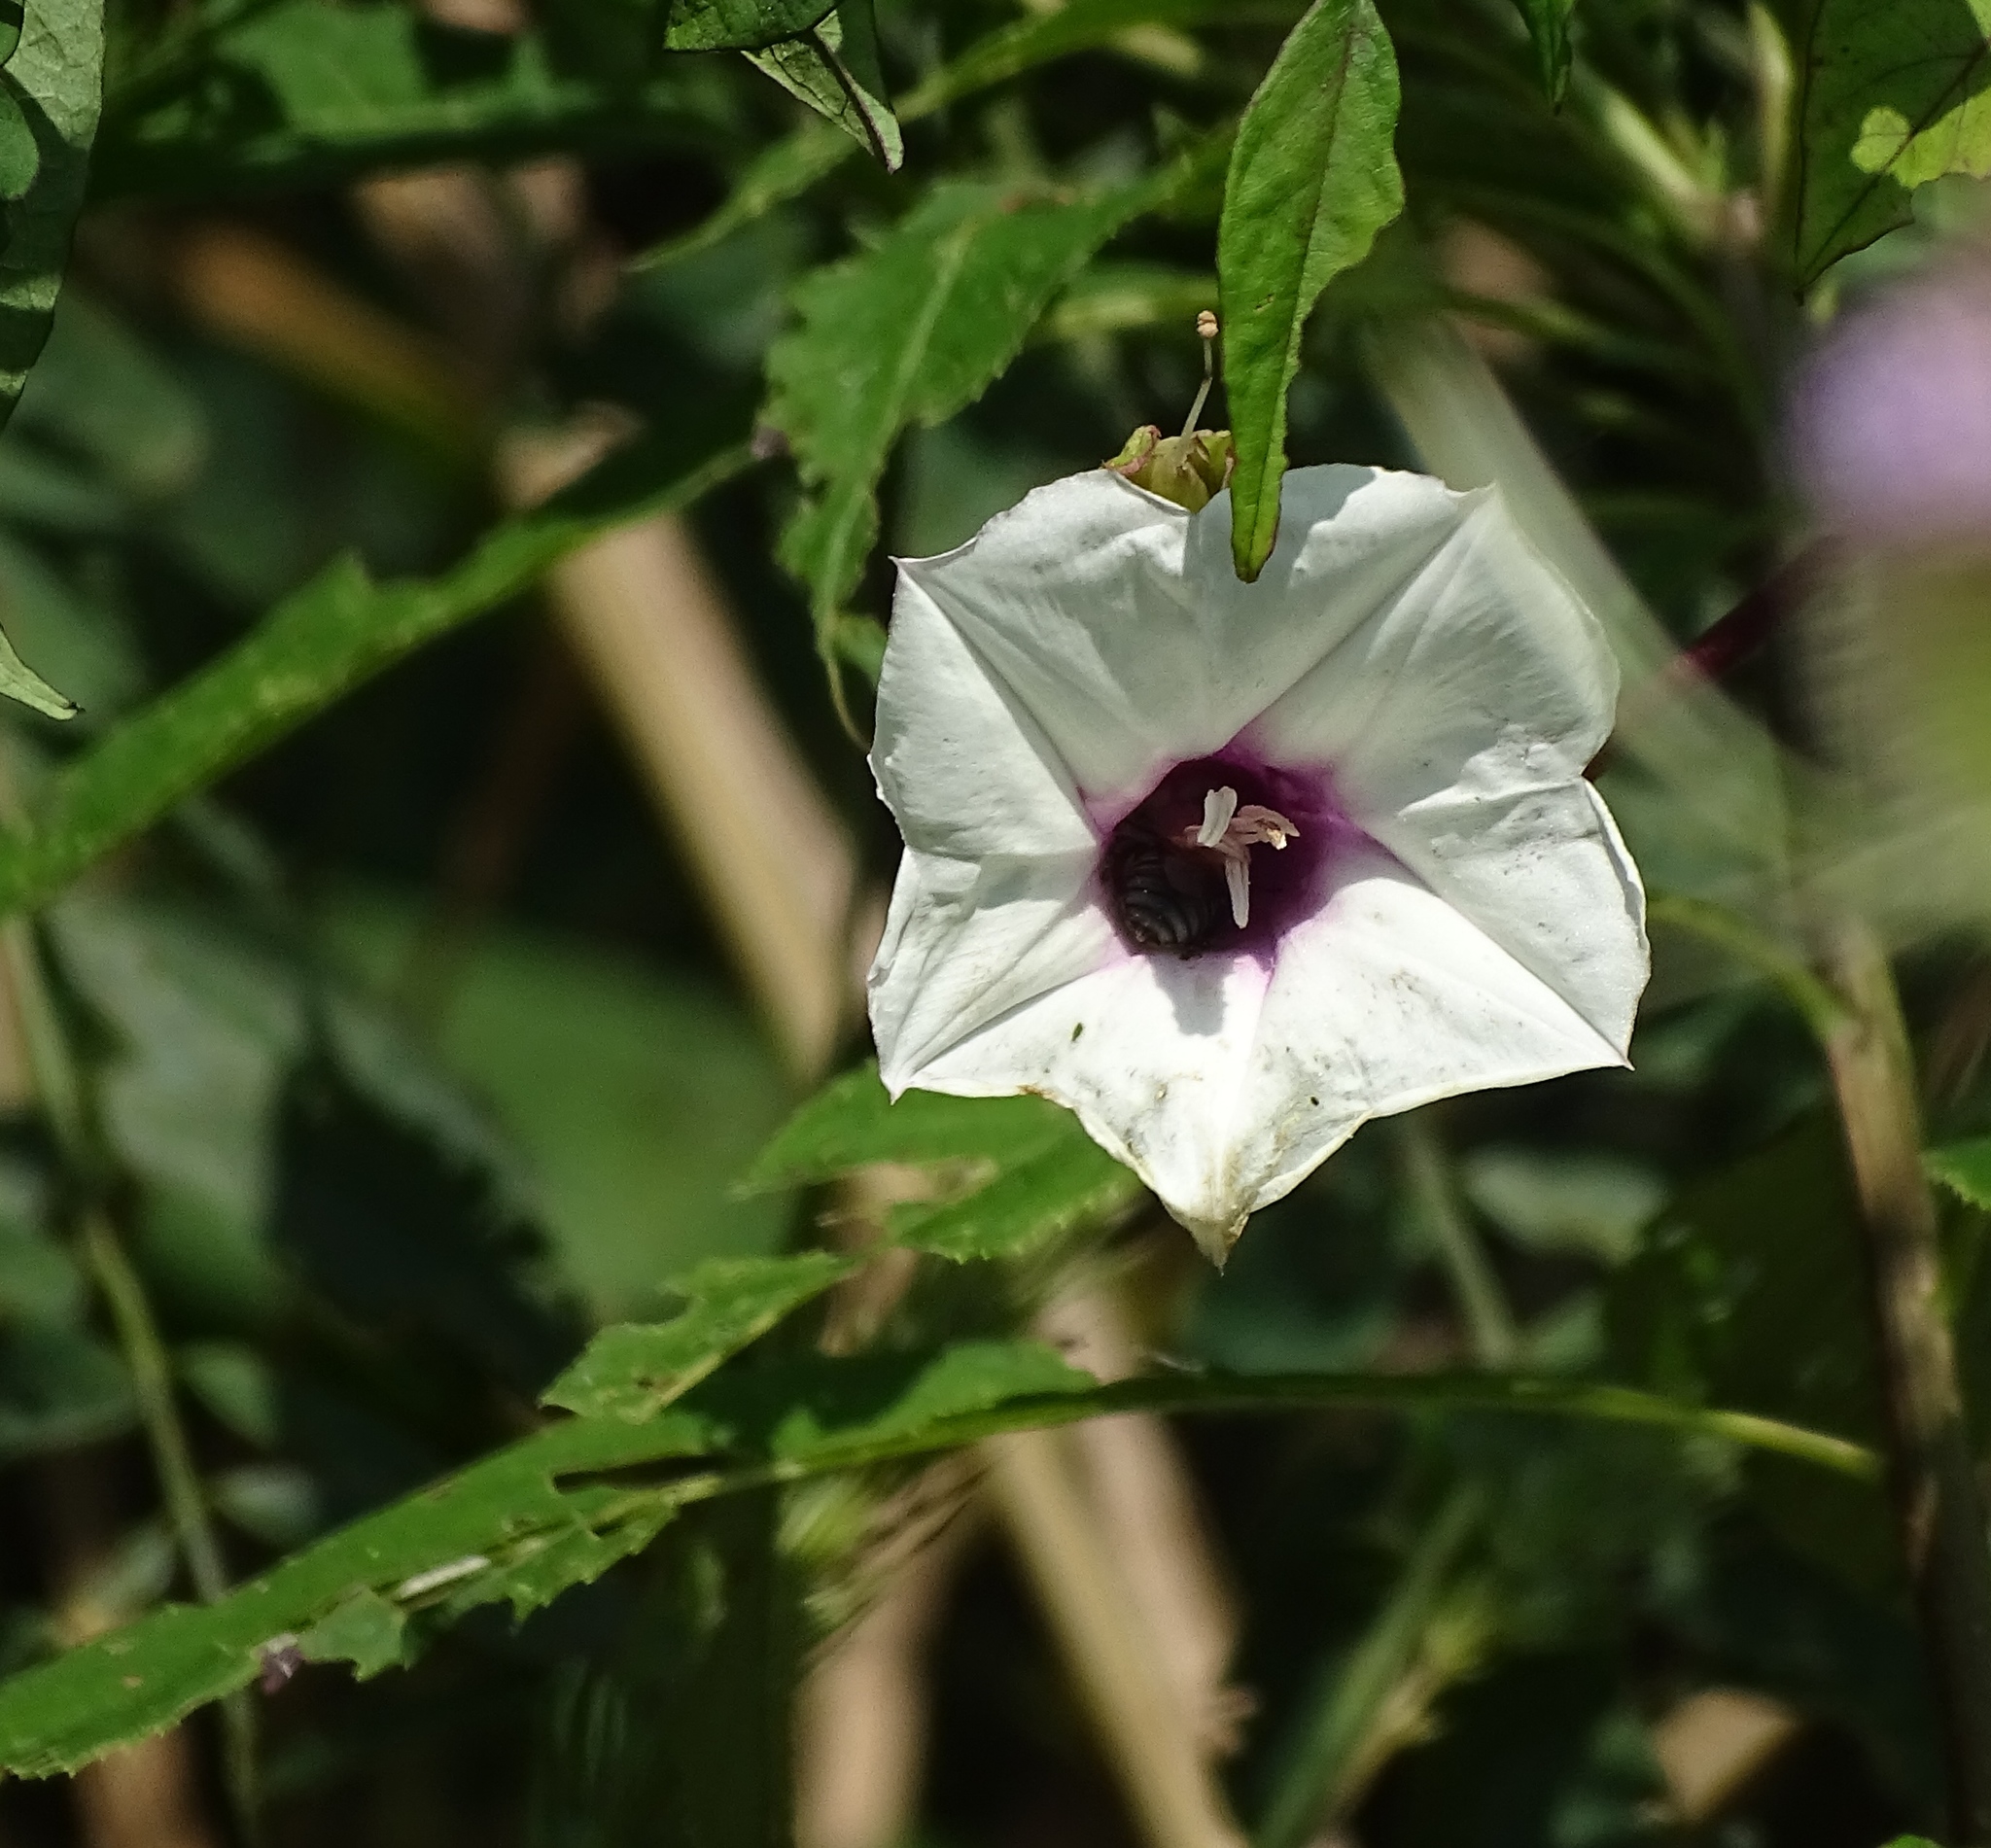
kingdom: Plantae
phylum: Tracheophyta
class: Magnoliopsida
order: Solanales
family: Convolvulaceae
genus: Ipomoea
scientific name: Ipomoea pandurata
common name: Man-of-the-earth
